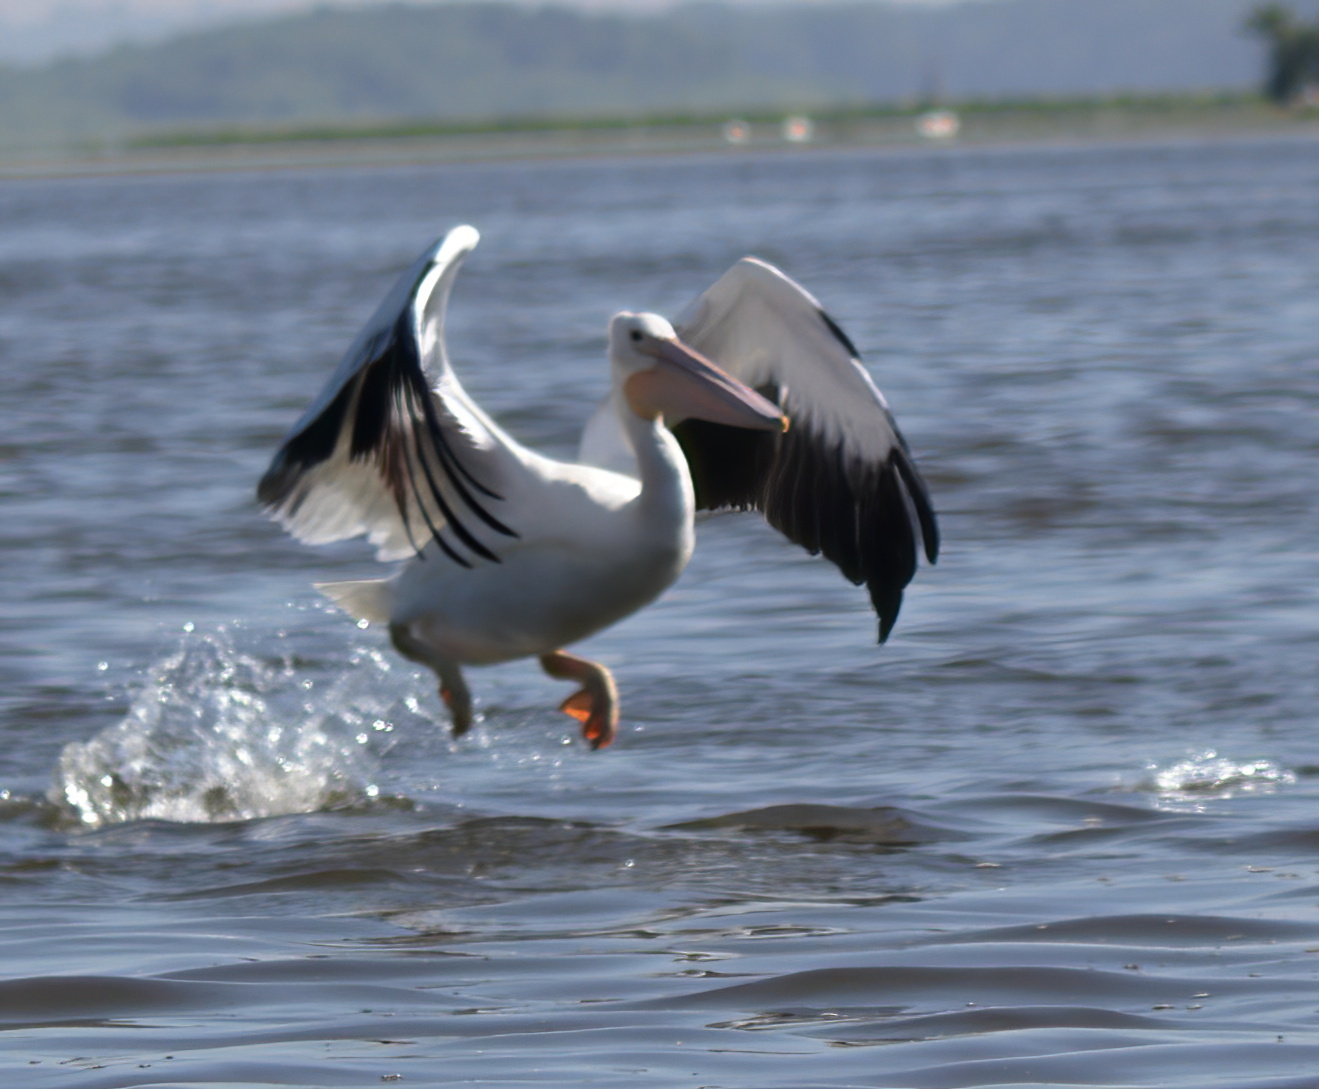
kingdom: Animalia
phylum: Chordata
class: Aves
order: Pelecaniformes
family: Pelecanidae
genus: Pelecanus
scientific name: Pelecanus erythrorhynchos
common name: American white pelican
